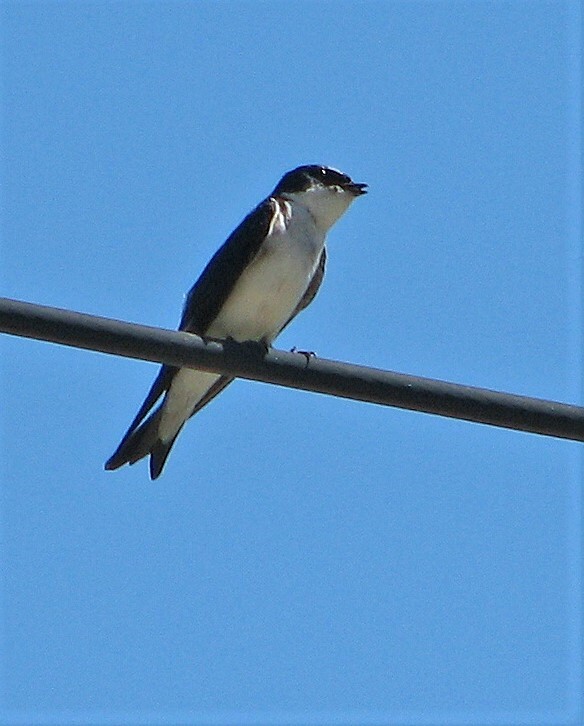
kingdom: Animalia
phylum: Chordata
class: Aves
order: Passeriformes
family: Hirundinidae
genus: Tachycineta
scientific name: Tachycineta leucopyga
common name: Chilean swallow
